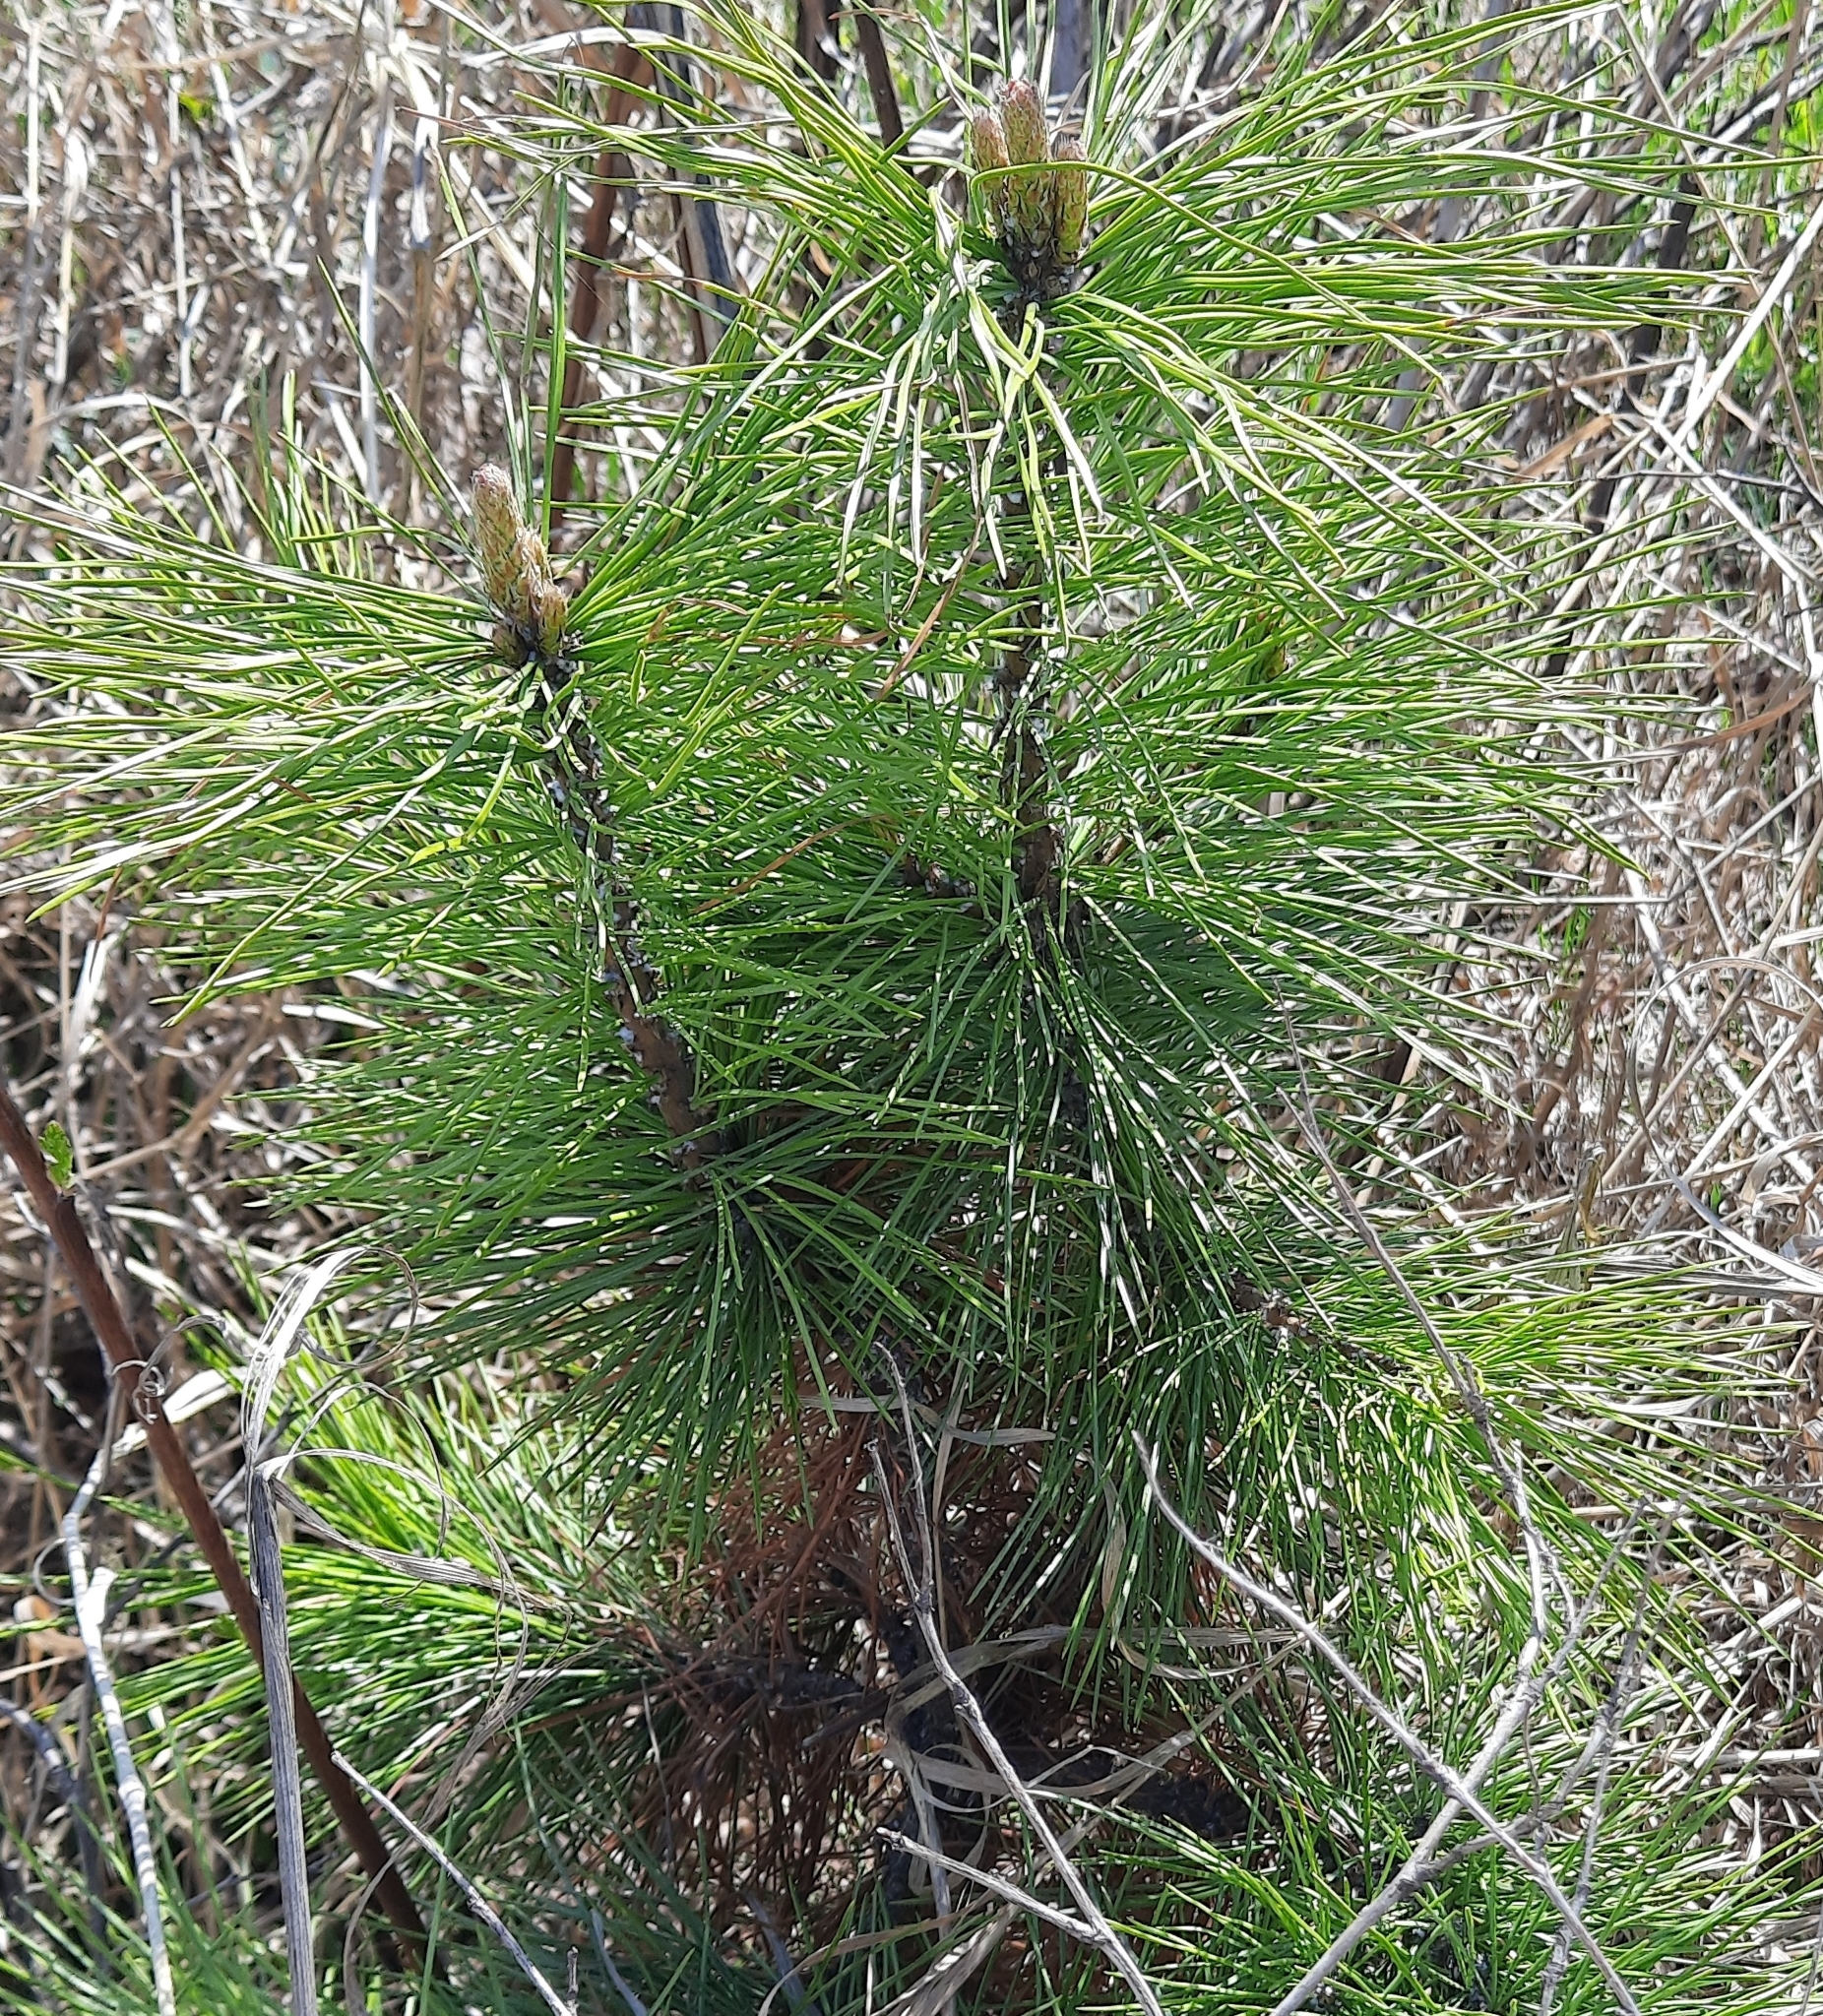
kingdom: Plantae
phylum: Tracheophyta
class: Pinopsida
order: Pinales
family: Pinaceae
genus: Pinus
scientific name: Pinus sibirica
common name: Siberian pine
